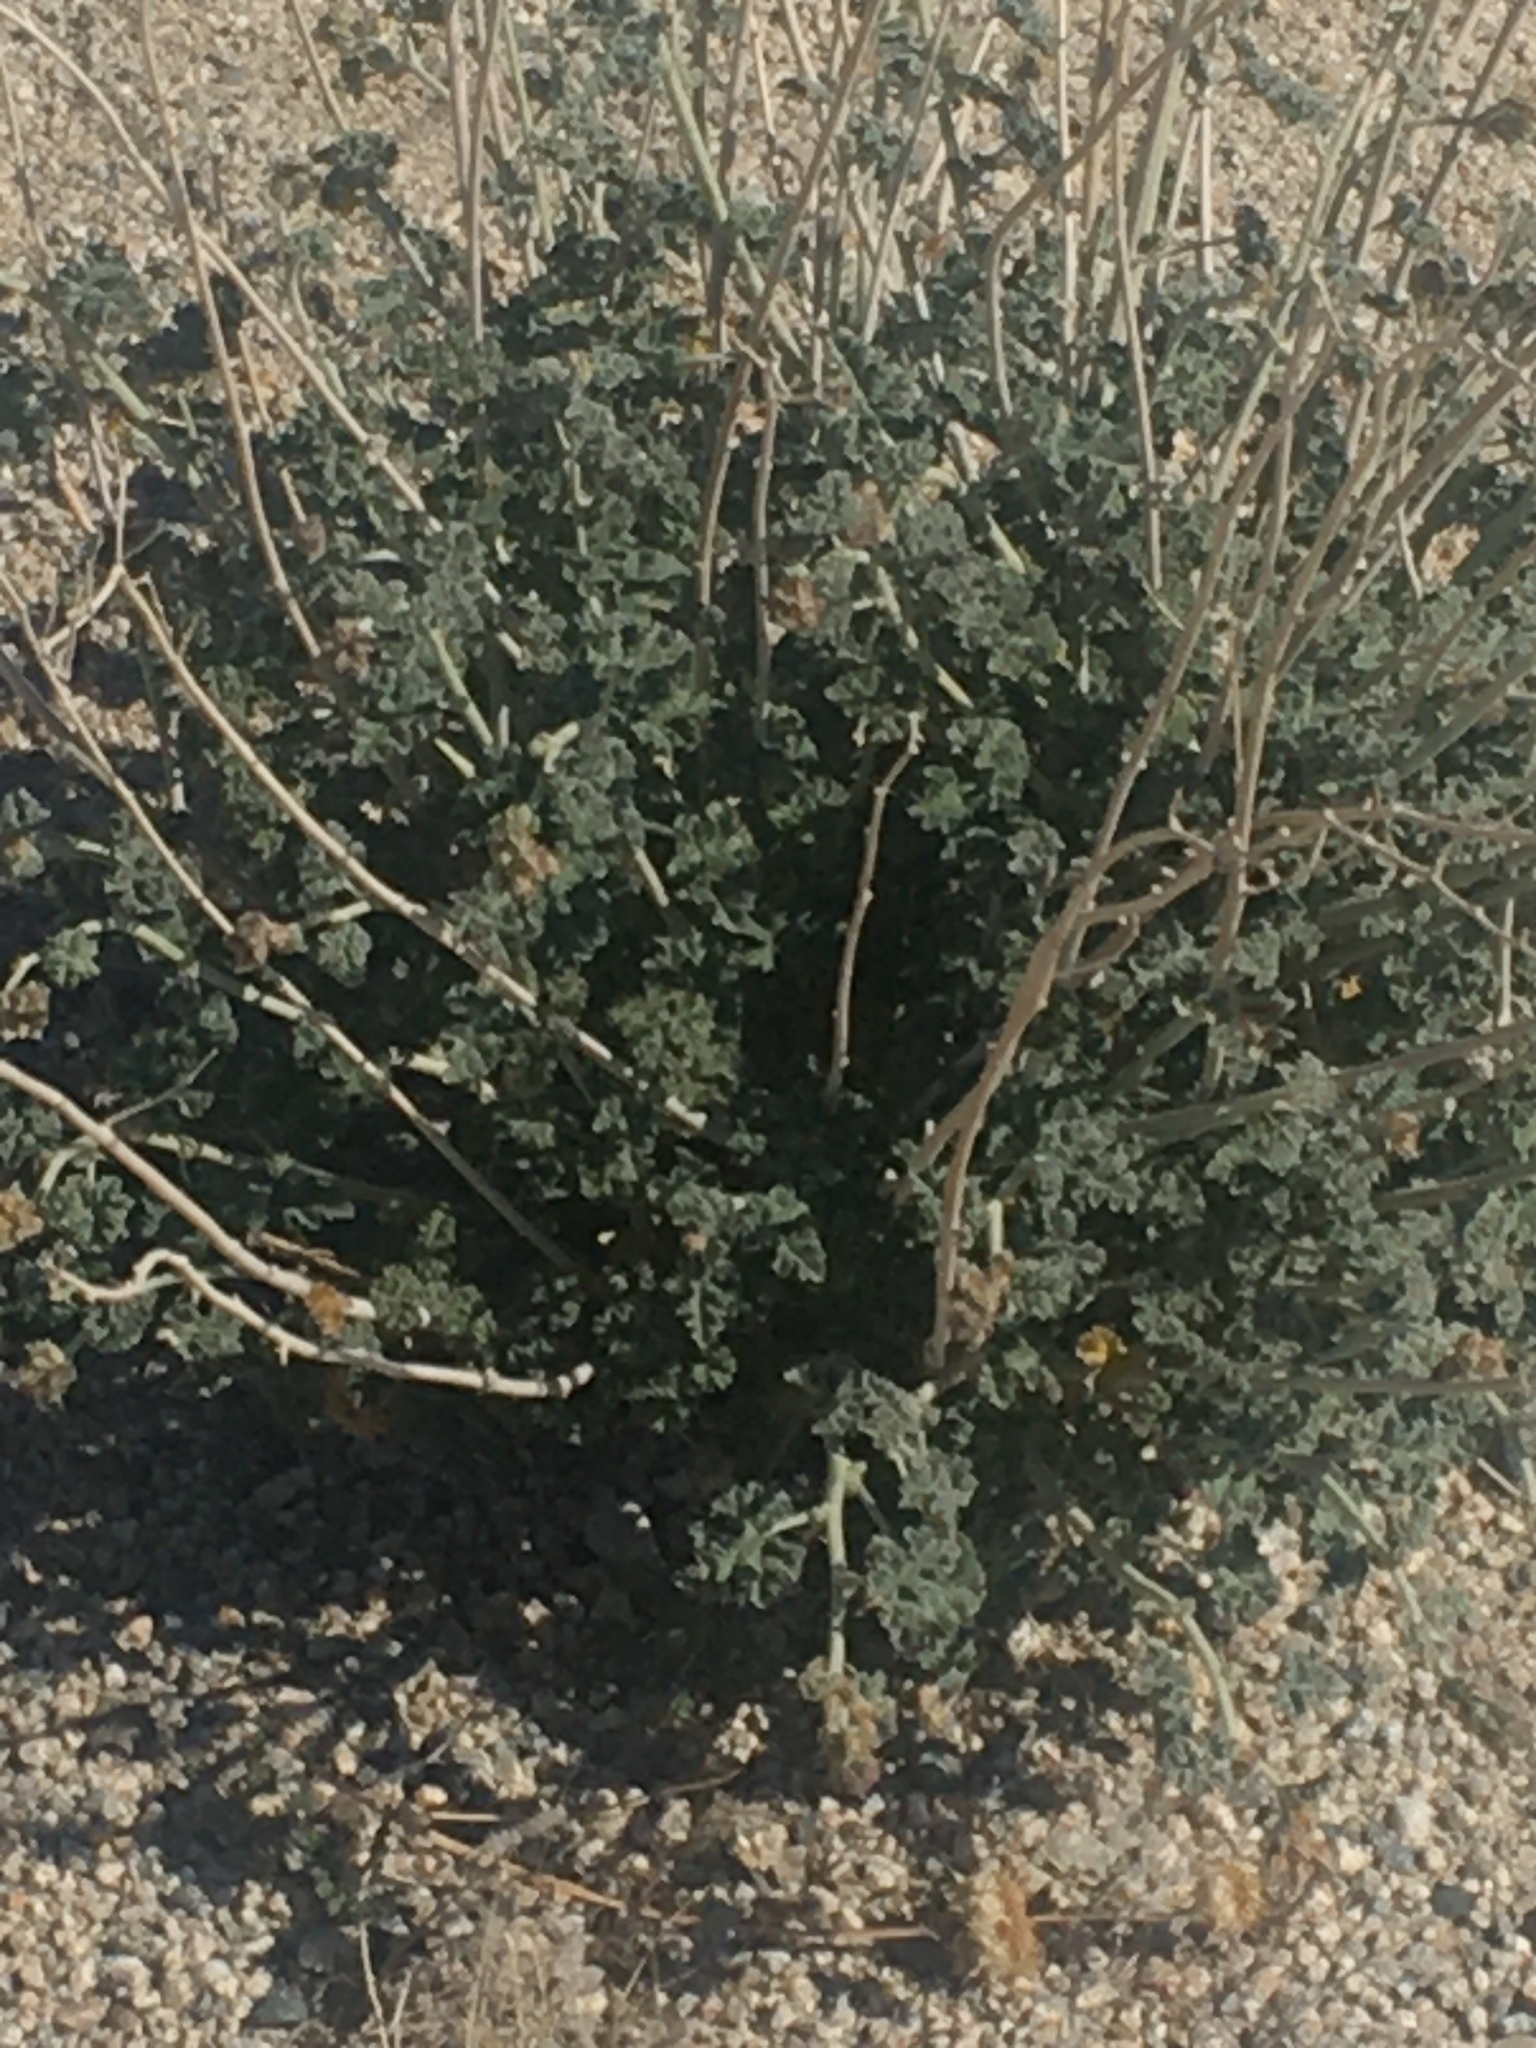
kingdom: Plantae
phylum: Tracheophyta
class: Magnoliopsida
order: Malvales
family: Malvaceae
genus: Sphaeralcea
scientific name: Sphaeralcea ambigua
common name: Apricot globe-mallow
